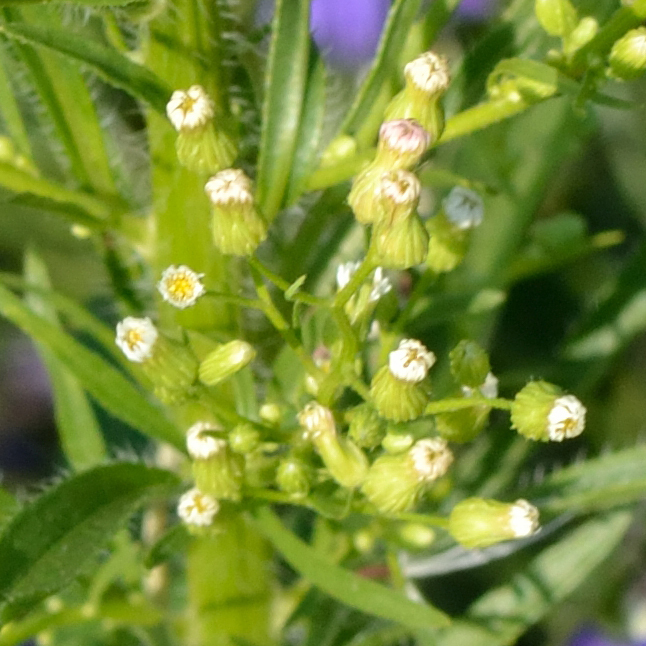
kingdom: Plantae
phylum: Tracheophyta
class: Magnoliopsida
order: Asterales
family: Asteraceae
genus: Erigeron
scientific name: Erigeron canadensis
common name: Canadian fleabane
